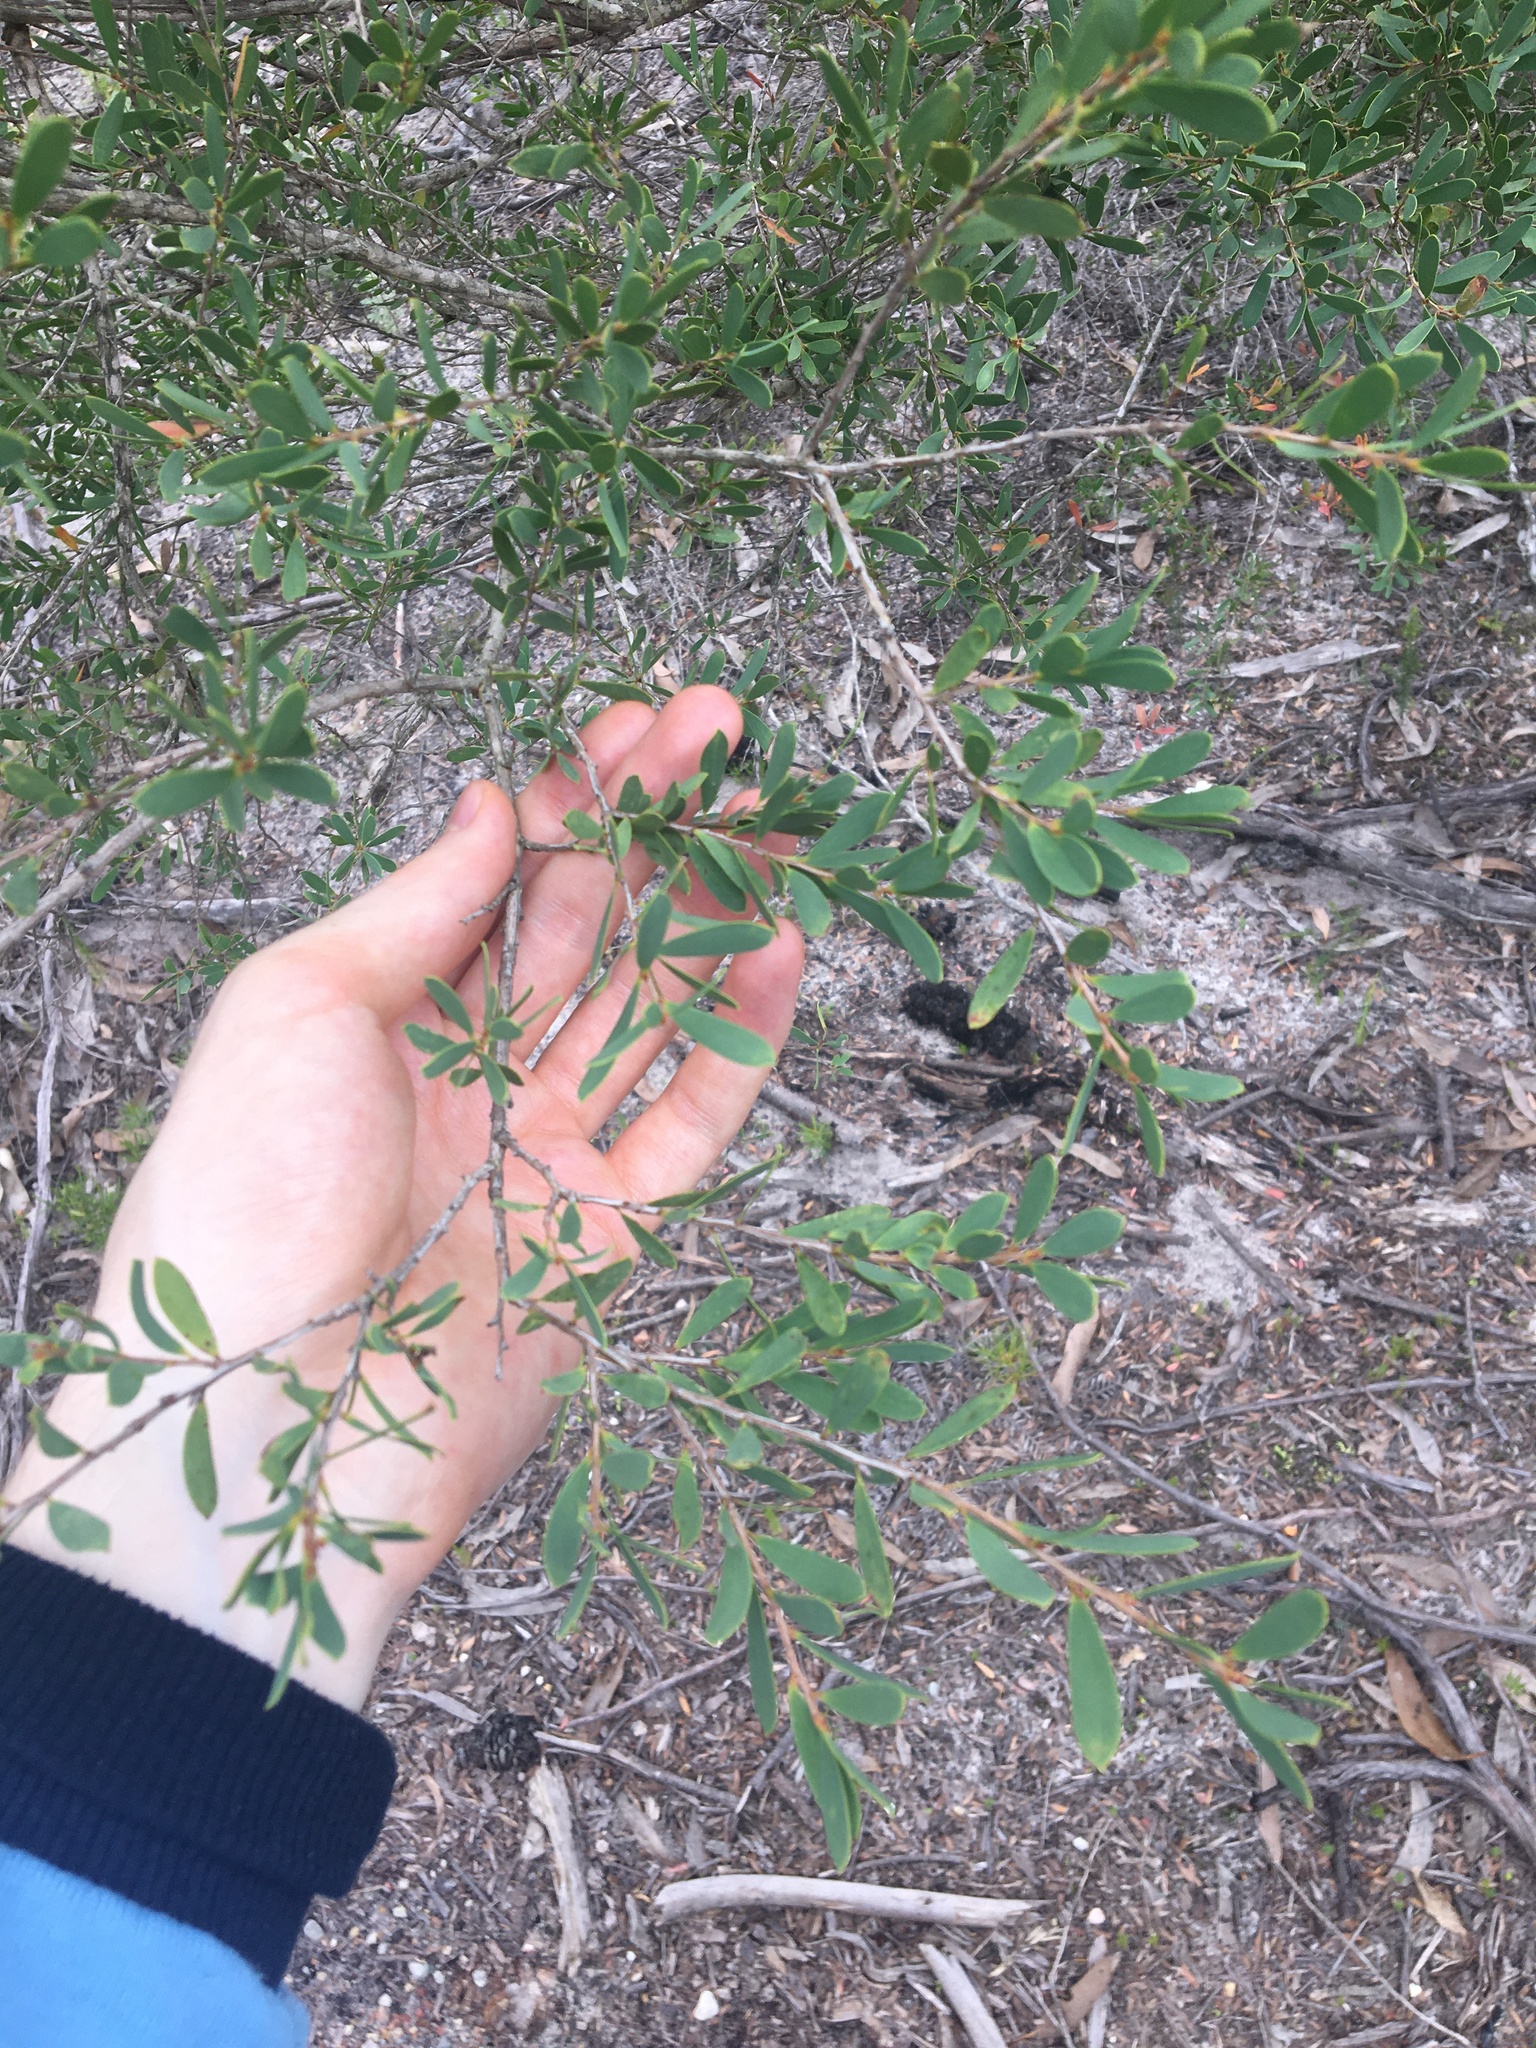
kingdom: Plantae
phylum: Tracheophyta
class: Magnoliopsida
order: Myrtales
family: Myrtaceae
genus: Leptospermum
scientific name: Leptospermum laevigatum
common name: Australian teatree
